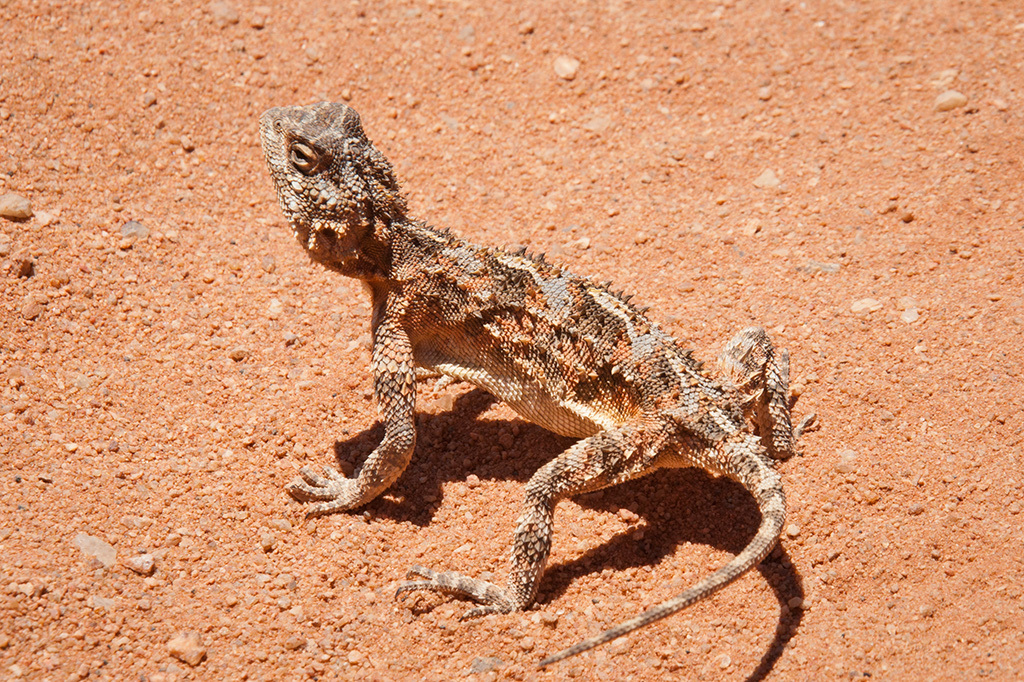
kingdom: Animalia
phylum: Chordata
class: Squamata
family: Agamidae
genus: Agama
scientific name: Agama hispida
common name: Common spiny agama
